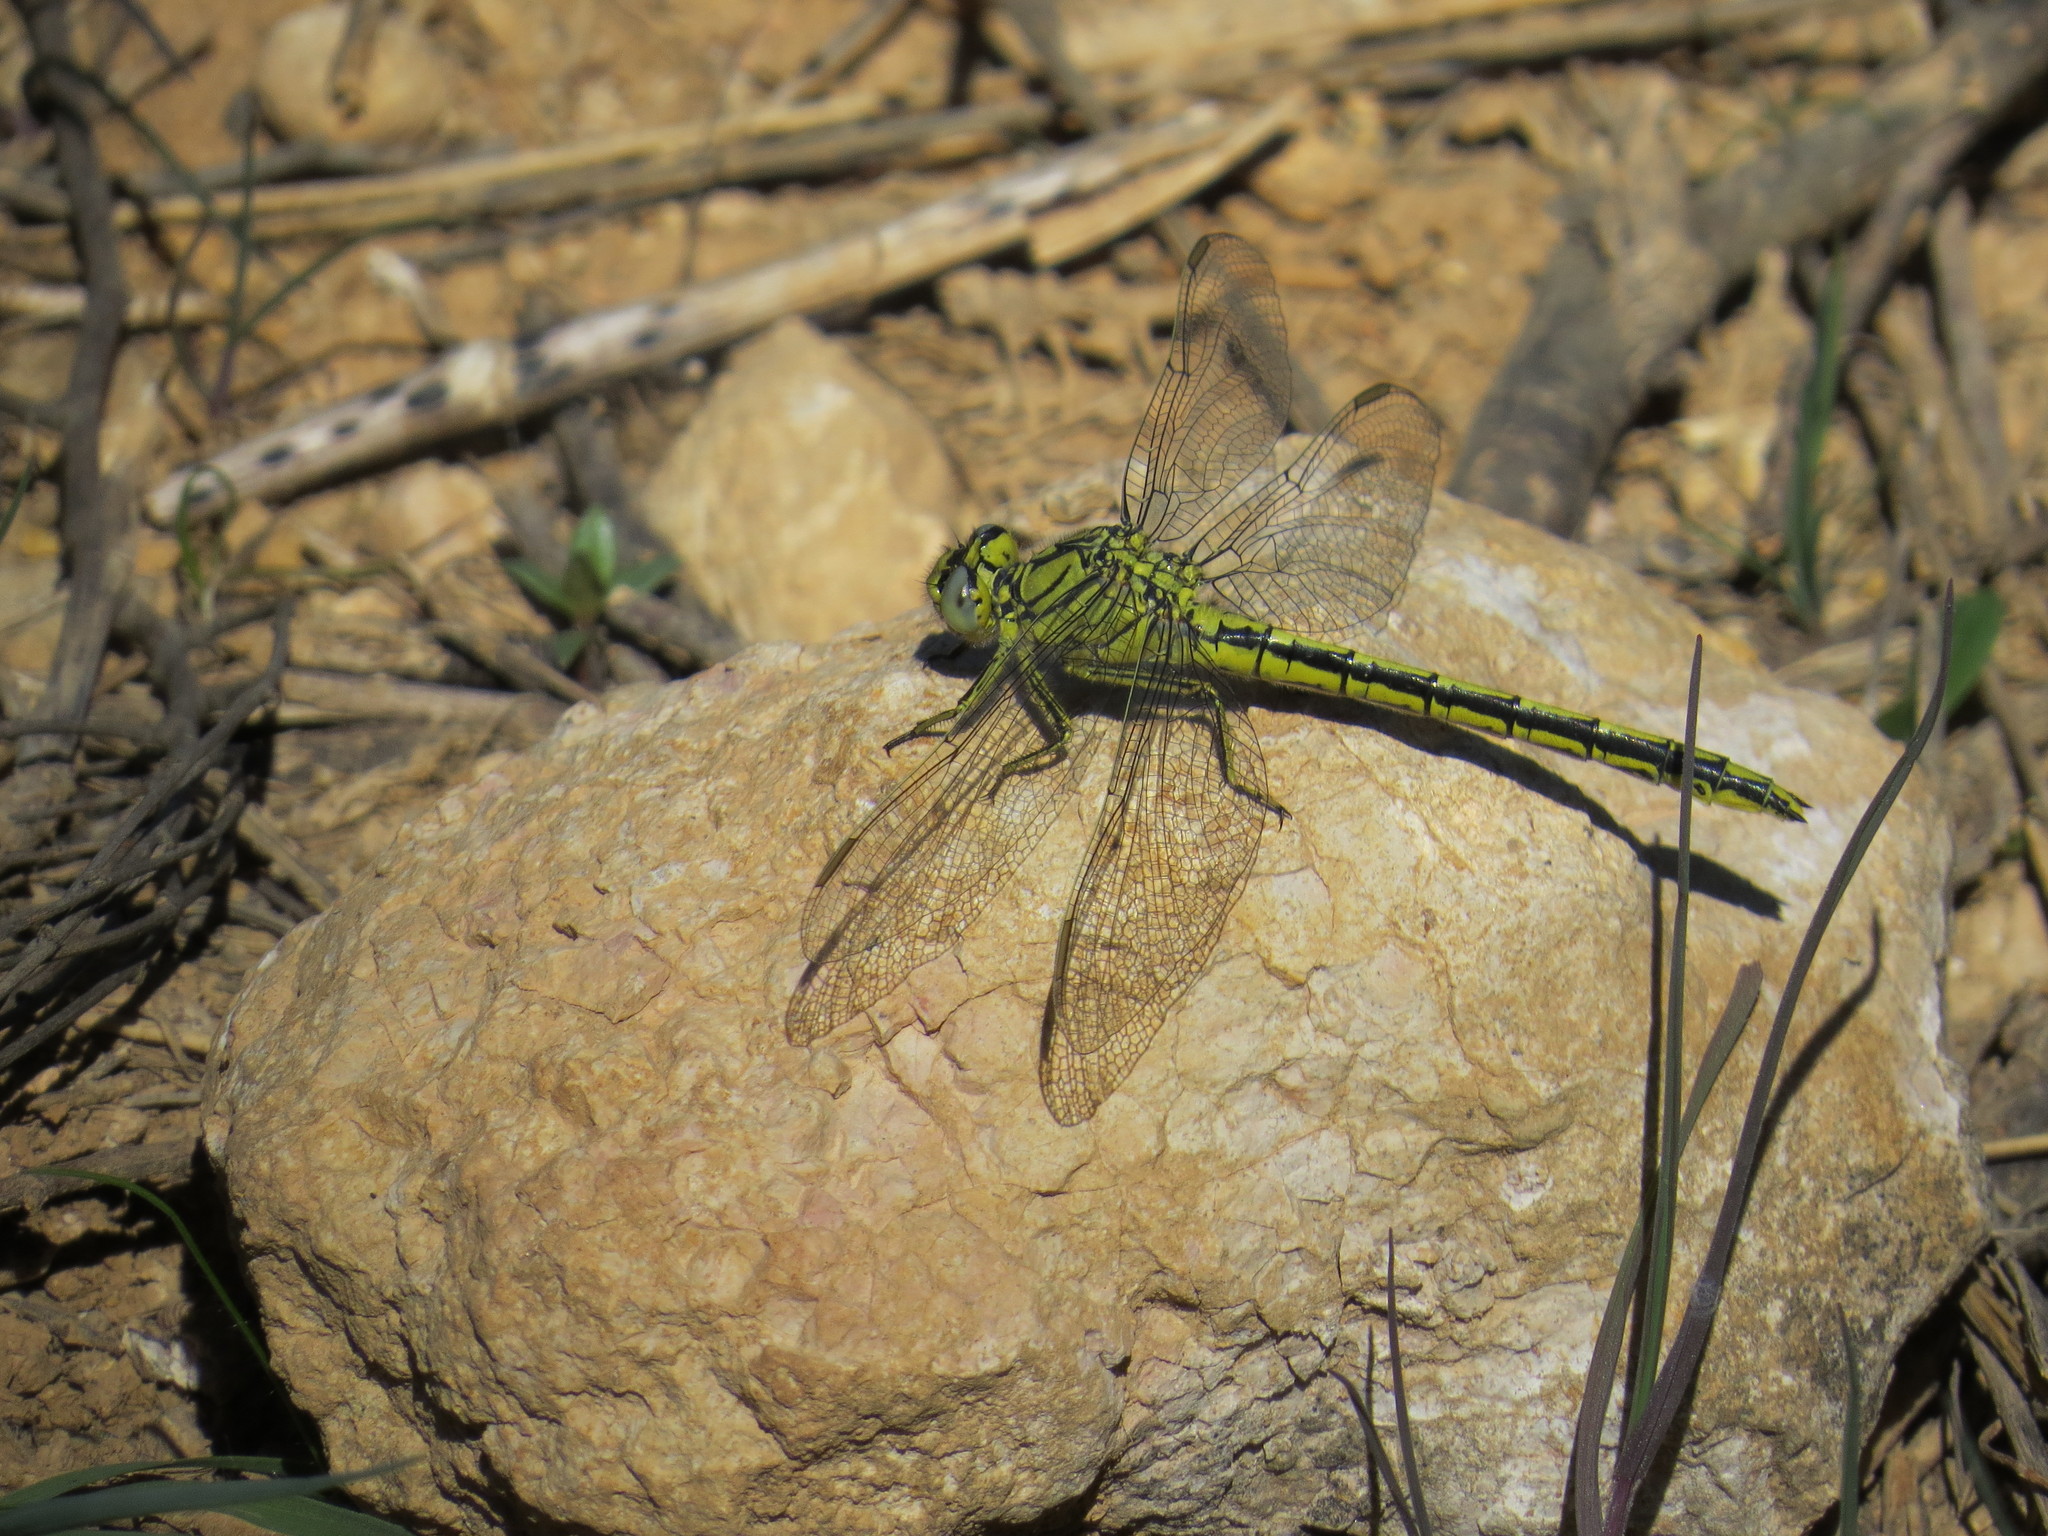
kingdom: Animalia
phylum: Arthropoda
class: Insecta
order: Odonata
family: Gomphidae
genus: Gomphus
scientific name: Gomphus pulchellus
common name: Western clubtail
